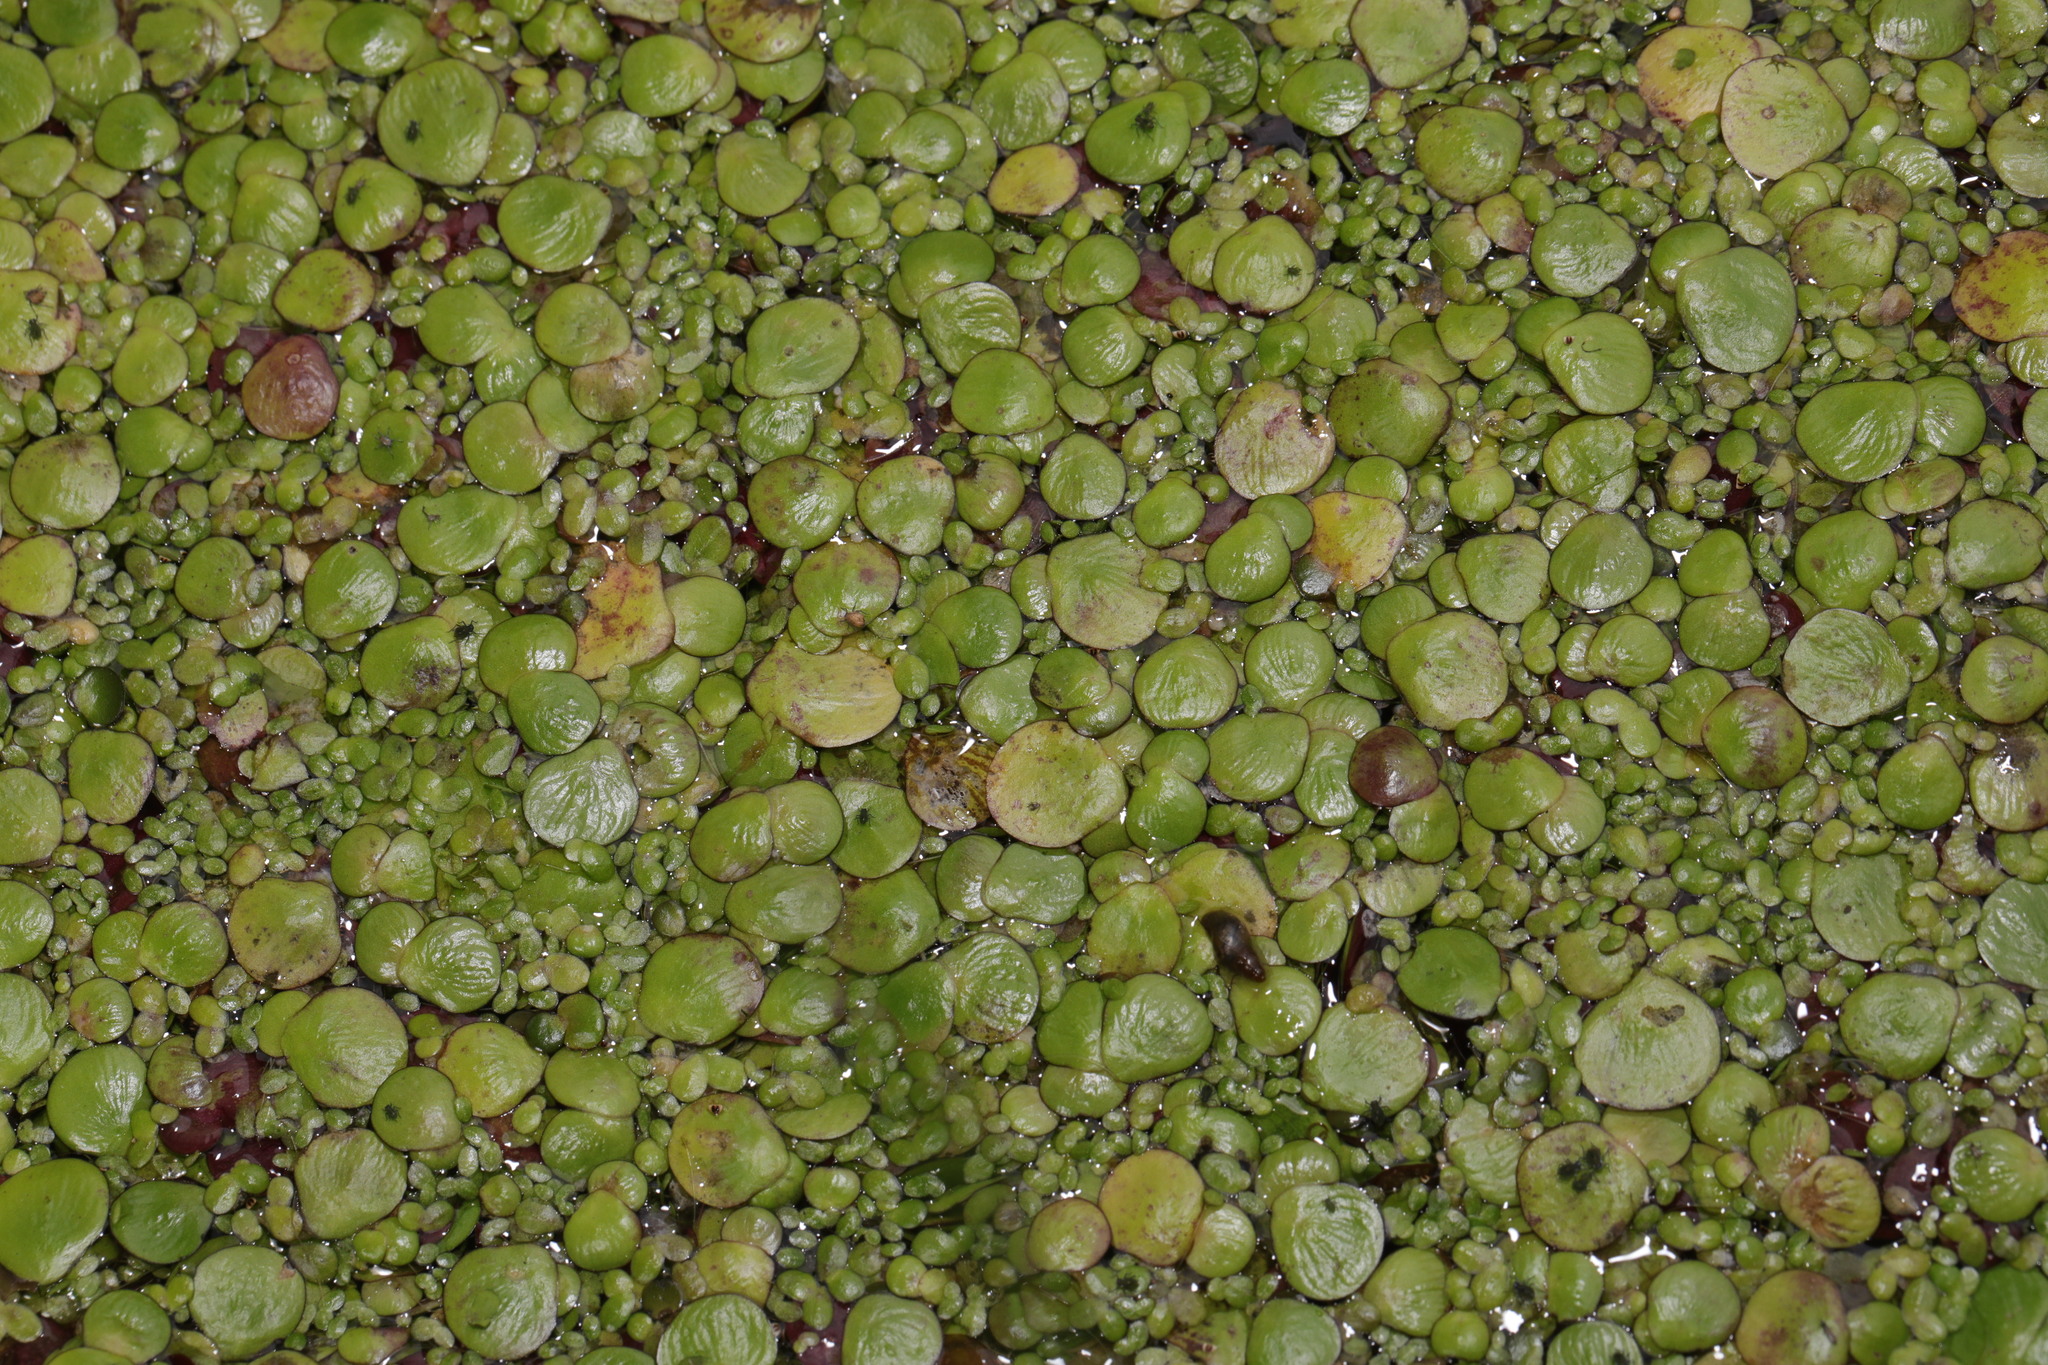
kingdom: Plantae
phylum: Tracheophyta
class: Liliopsida
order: Alismatales
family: Araceae
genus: Spirodela
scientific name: Spirodela polyrhiza
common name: Great duckweed
